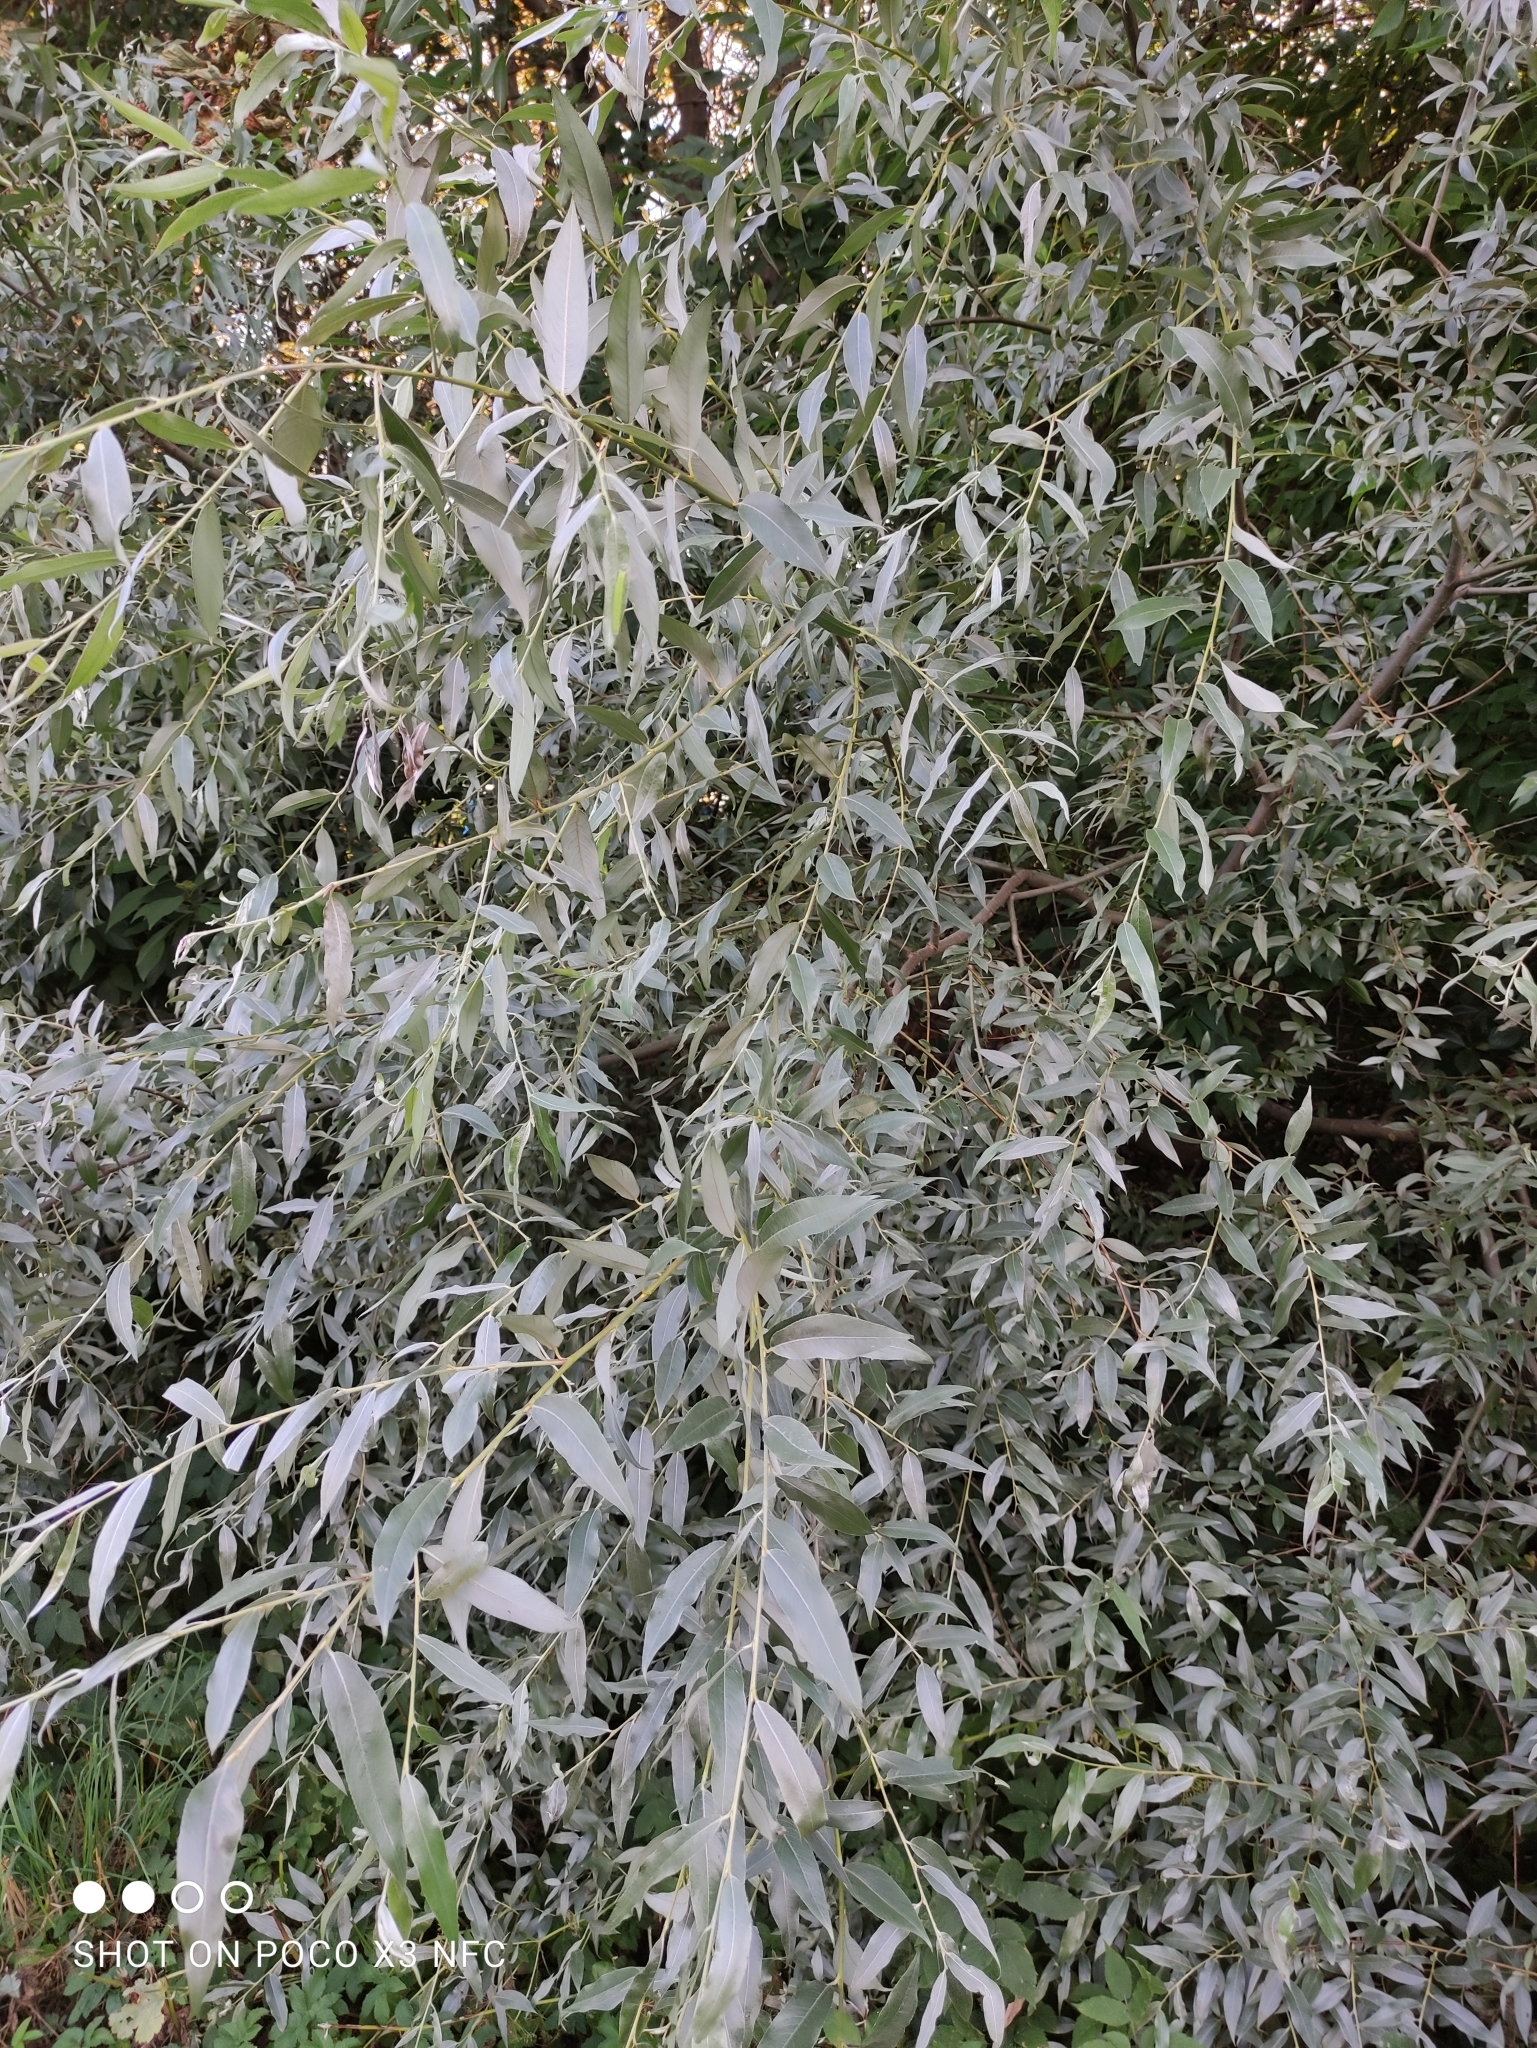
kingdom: Plantae
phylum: Tracheophyta
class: Magnoliopsida
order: Malpighiales
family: Salicaceae
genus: Salix
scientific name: Salix alba
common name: White willow
